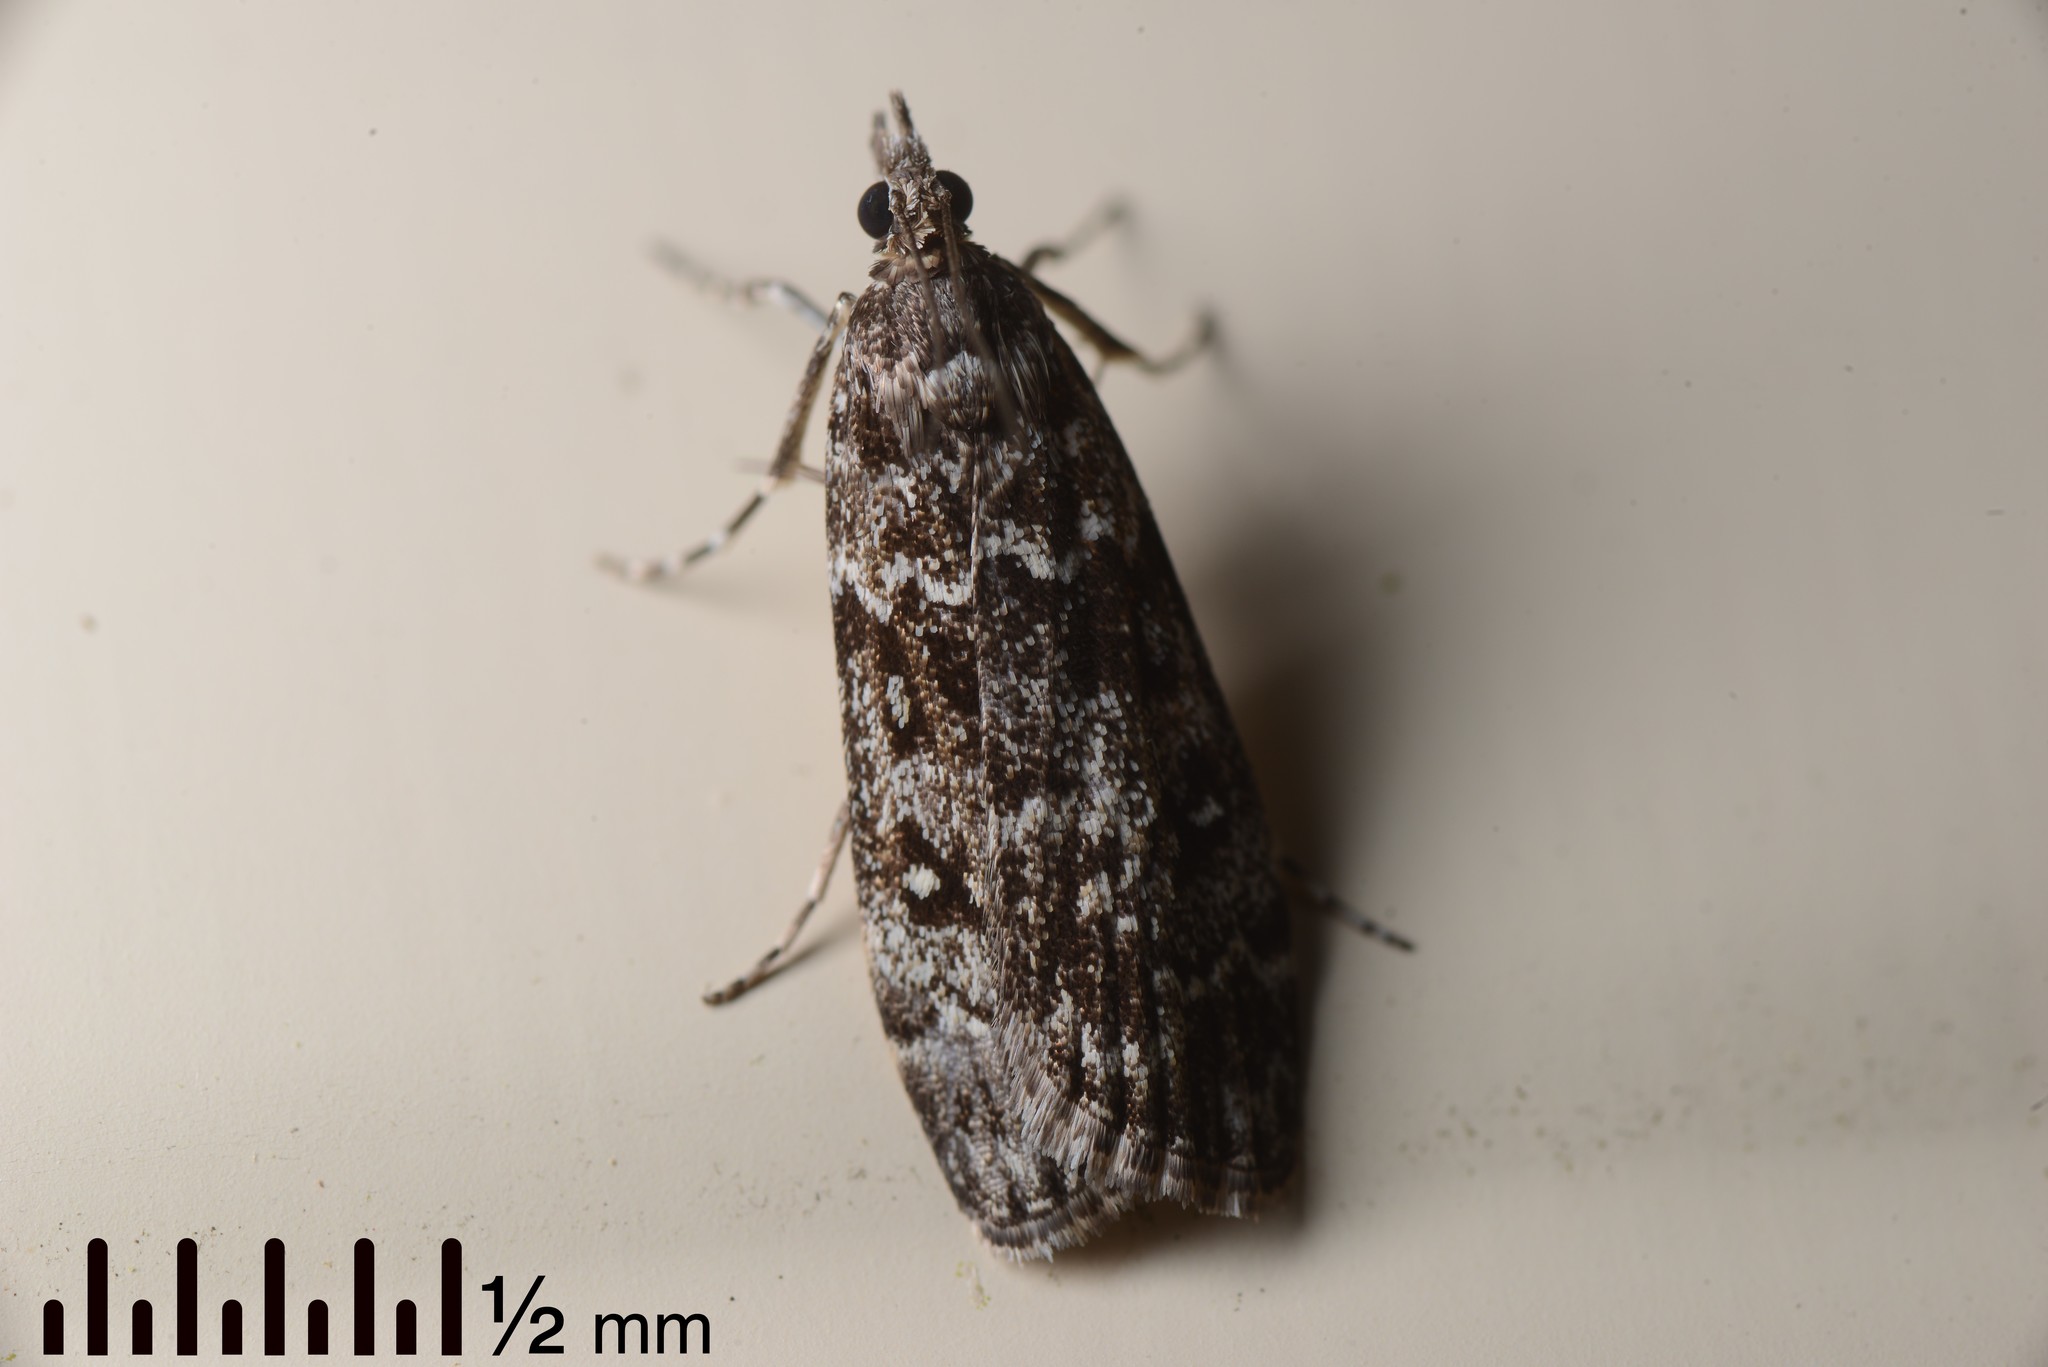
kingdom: Animalia
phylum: Arthropoda
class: Insecta
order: Lepidoptera
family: Crambidae
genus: Eudonia
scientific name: Eudonia philerga
